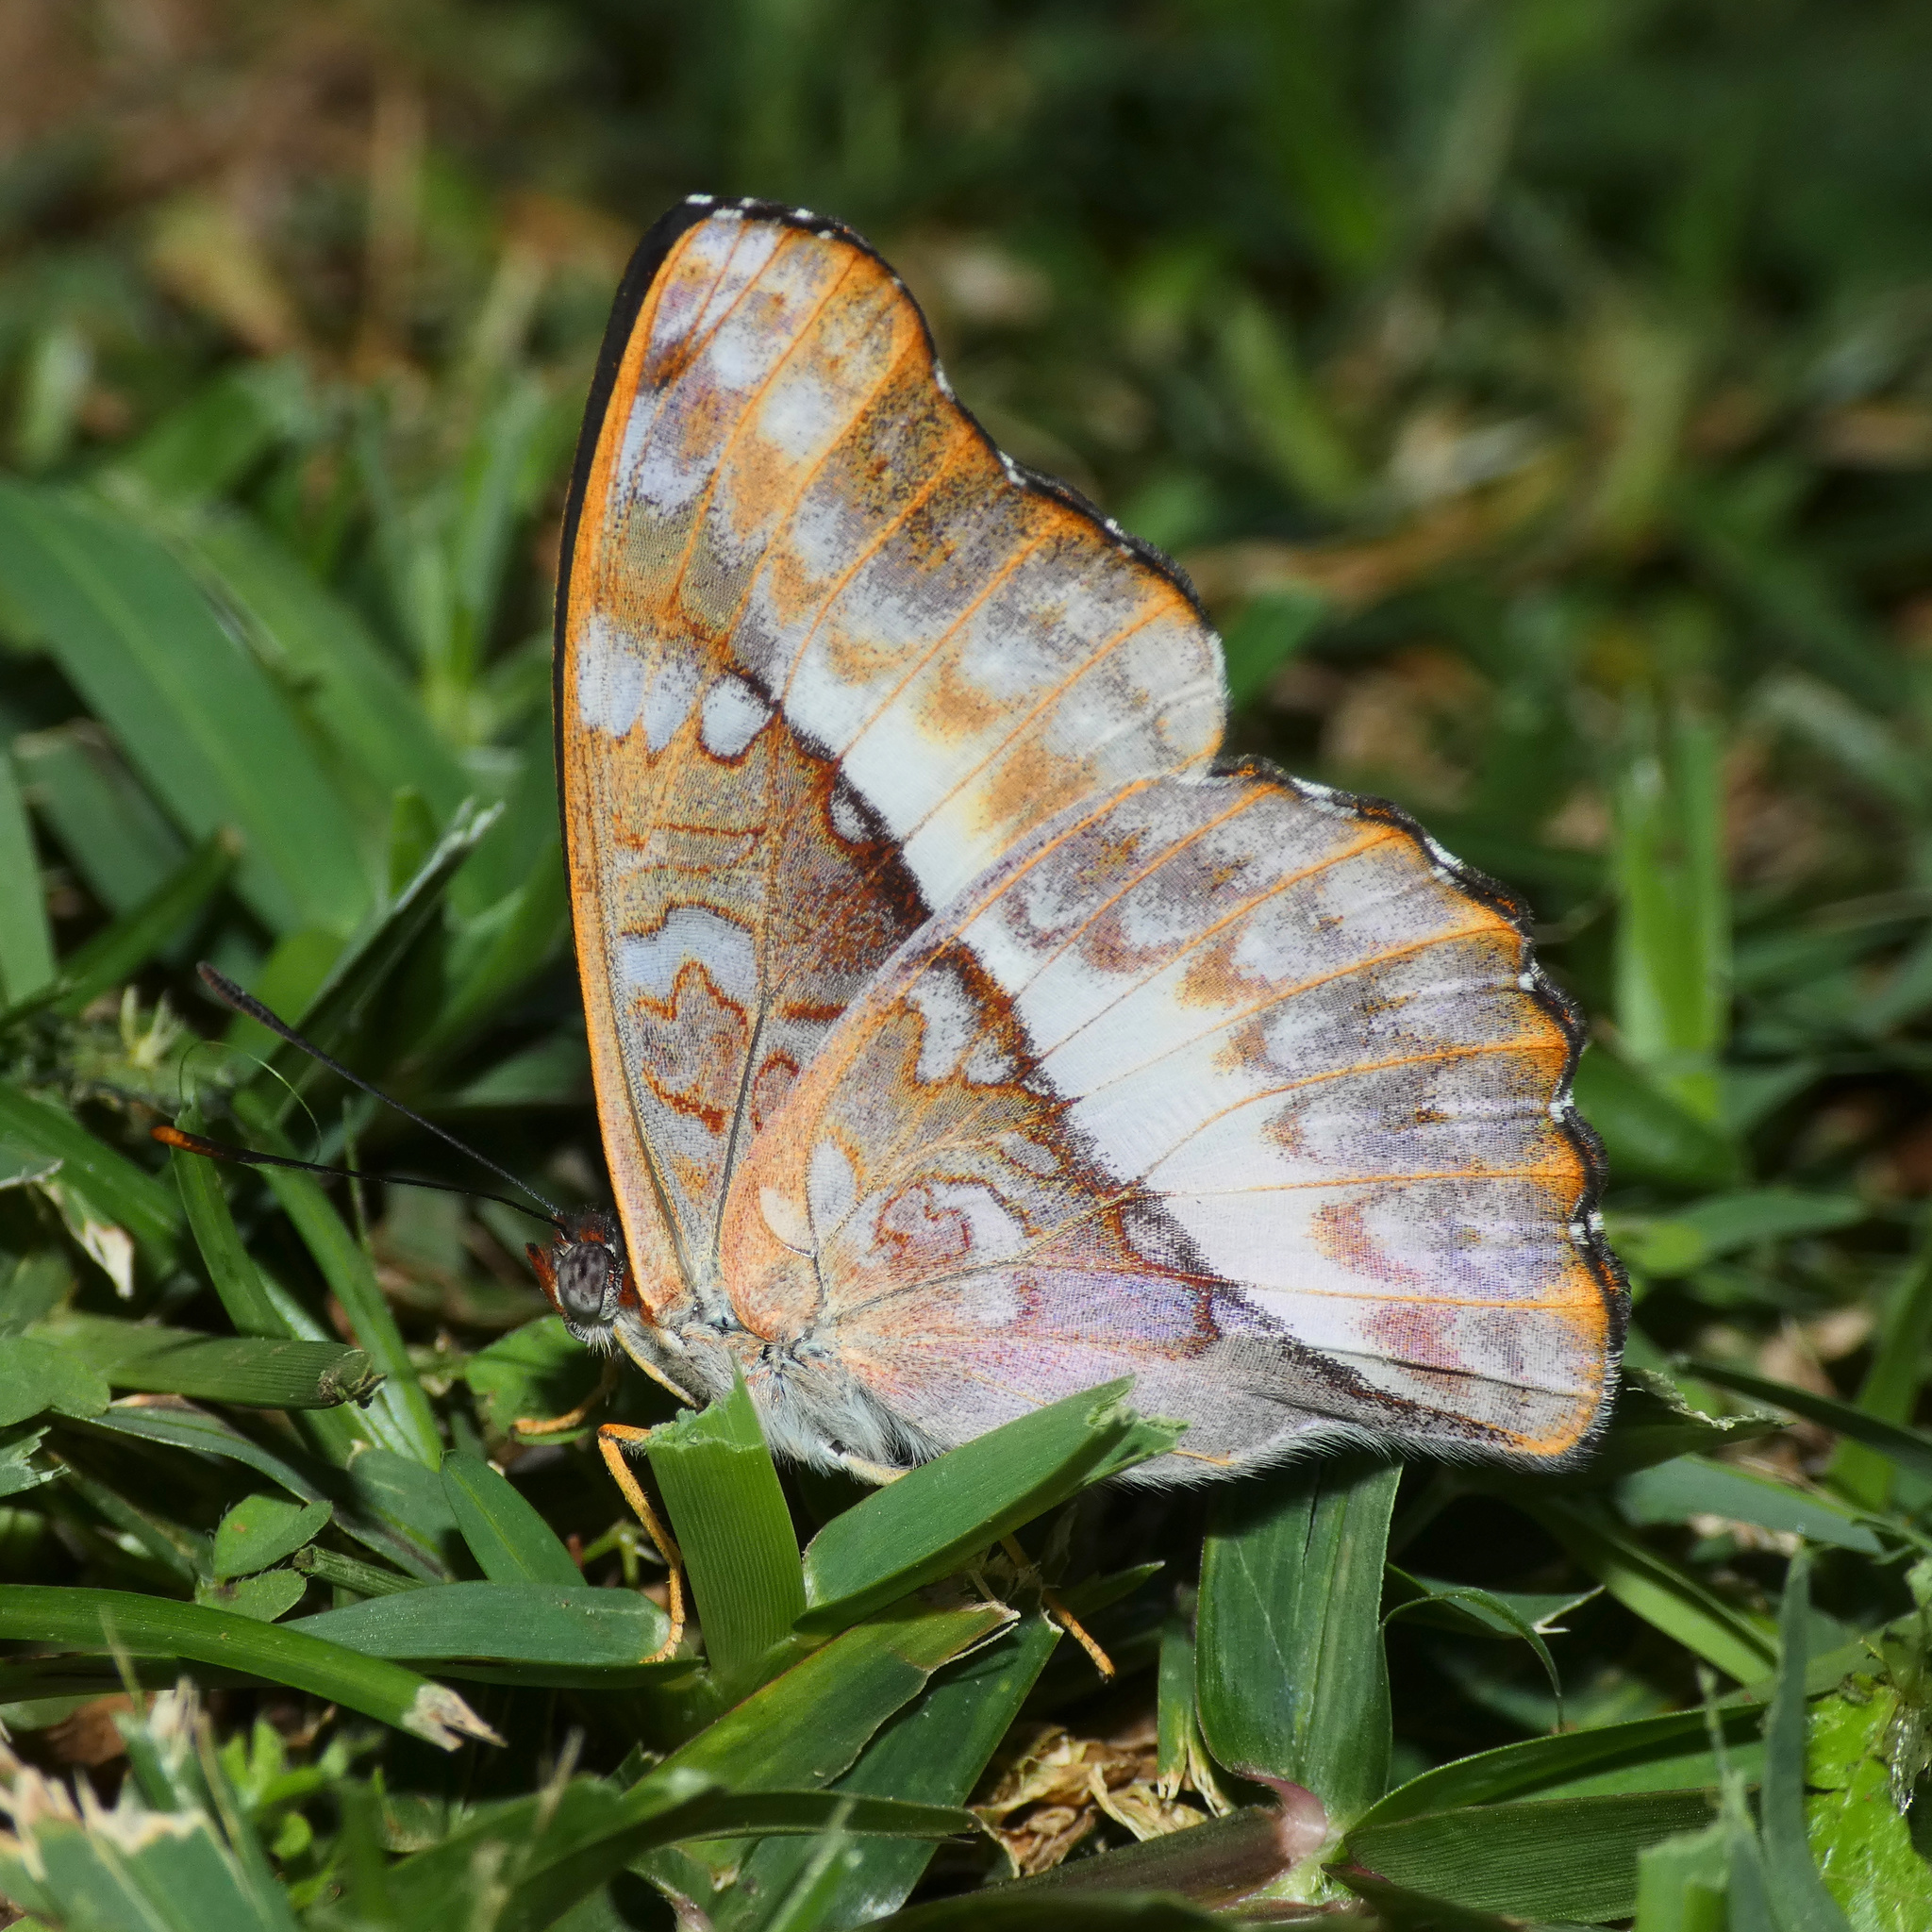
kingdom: Animalia
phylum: Arthropoda
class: Insecta
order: Lepidoptera
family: Nymphalidae
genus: Cymothoe
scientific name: Cymothoe alcimeda
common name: Battling glider
